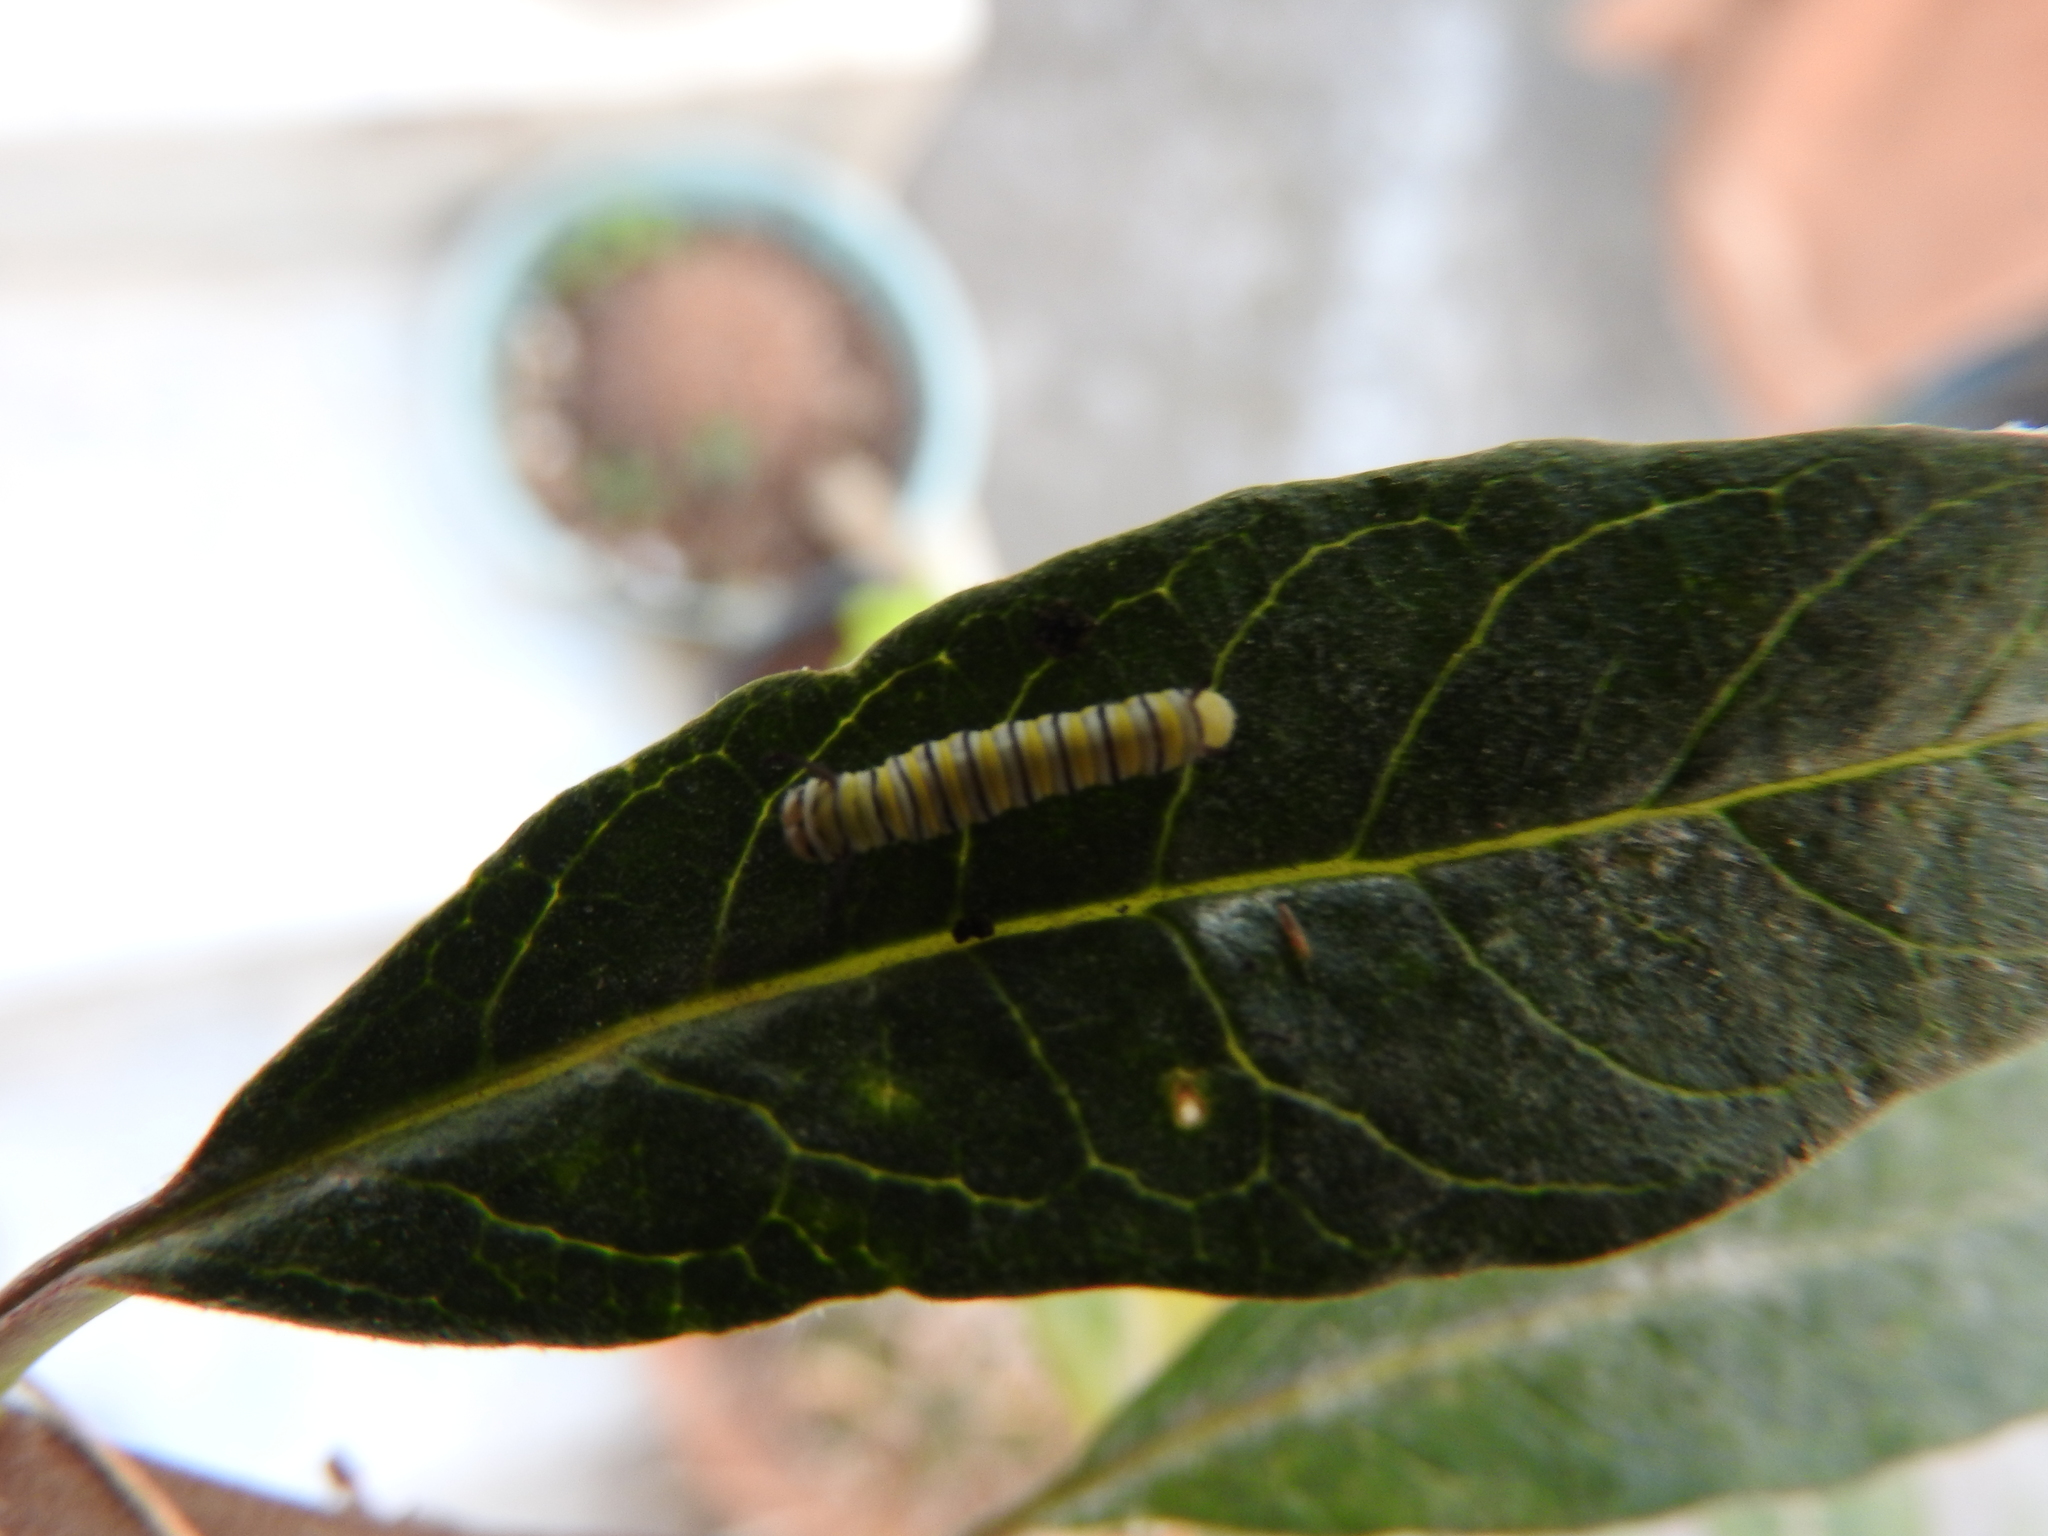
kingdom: Animalia
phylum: Arthropoda
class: Insecta
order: Lepidoptera
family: Nymphalidae
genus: Danaus
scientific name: Danaus plexippus
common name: Monarch
